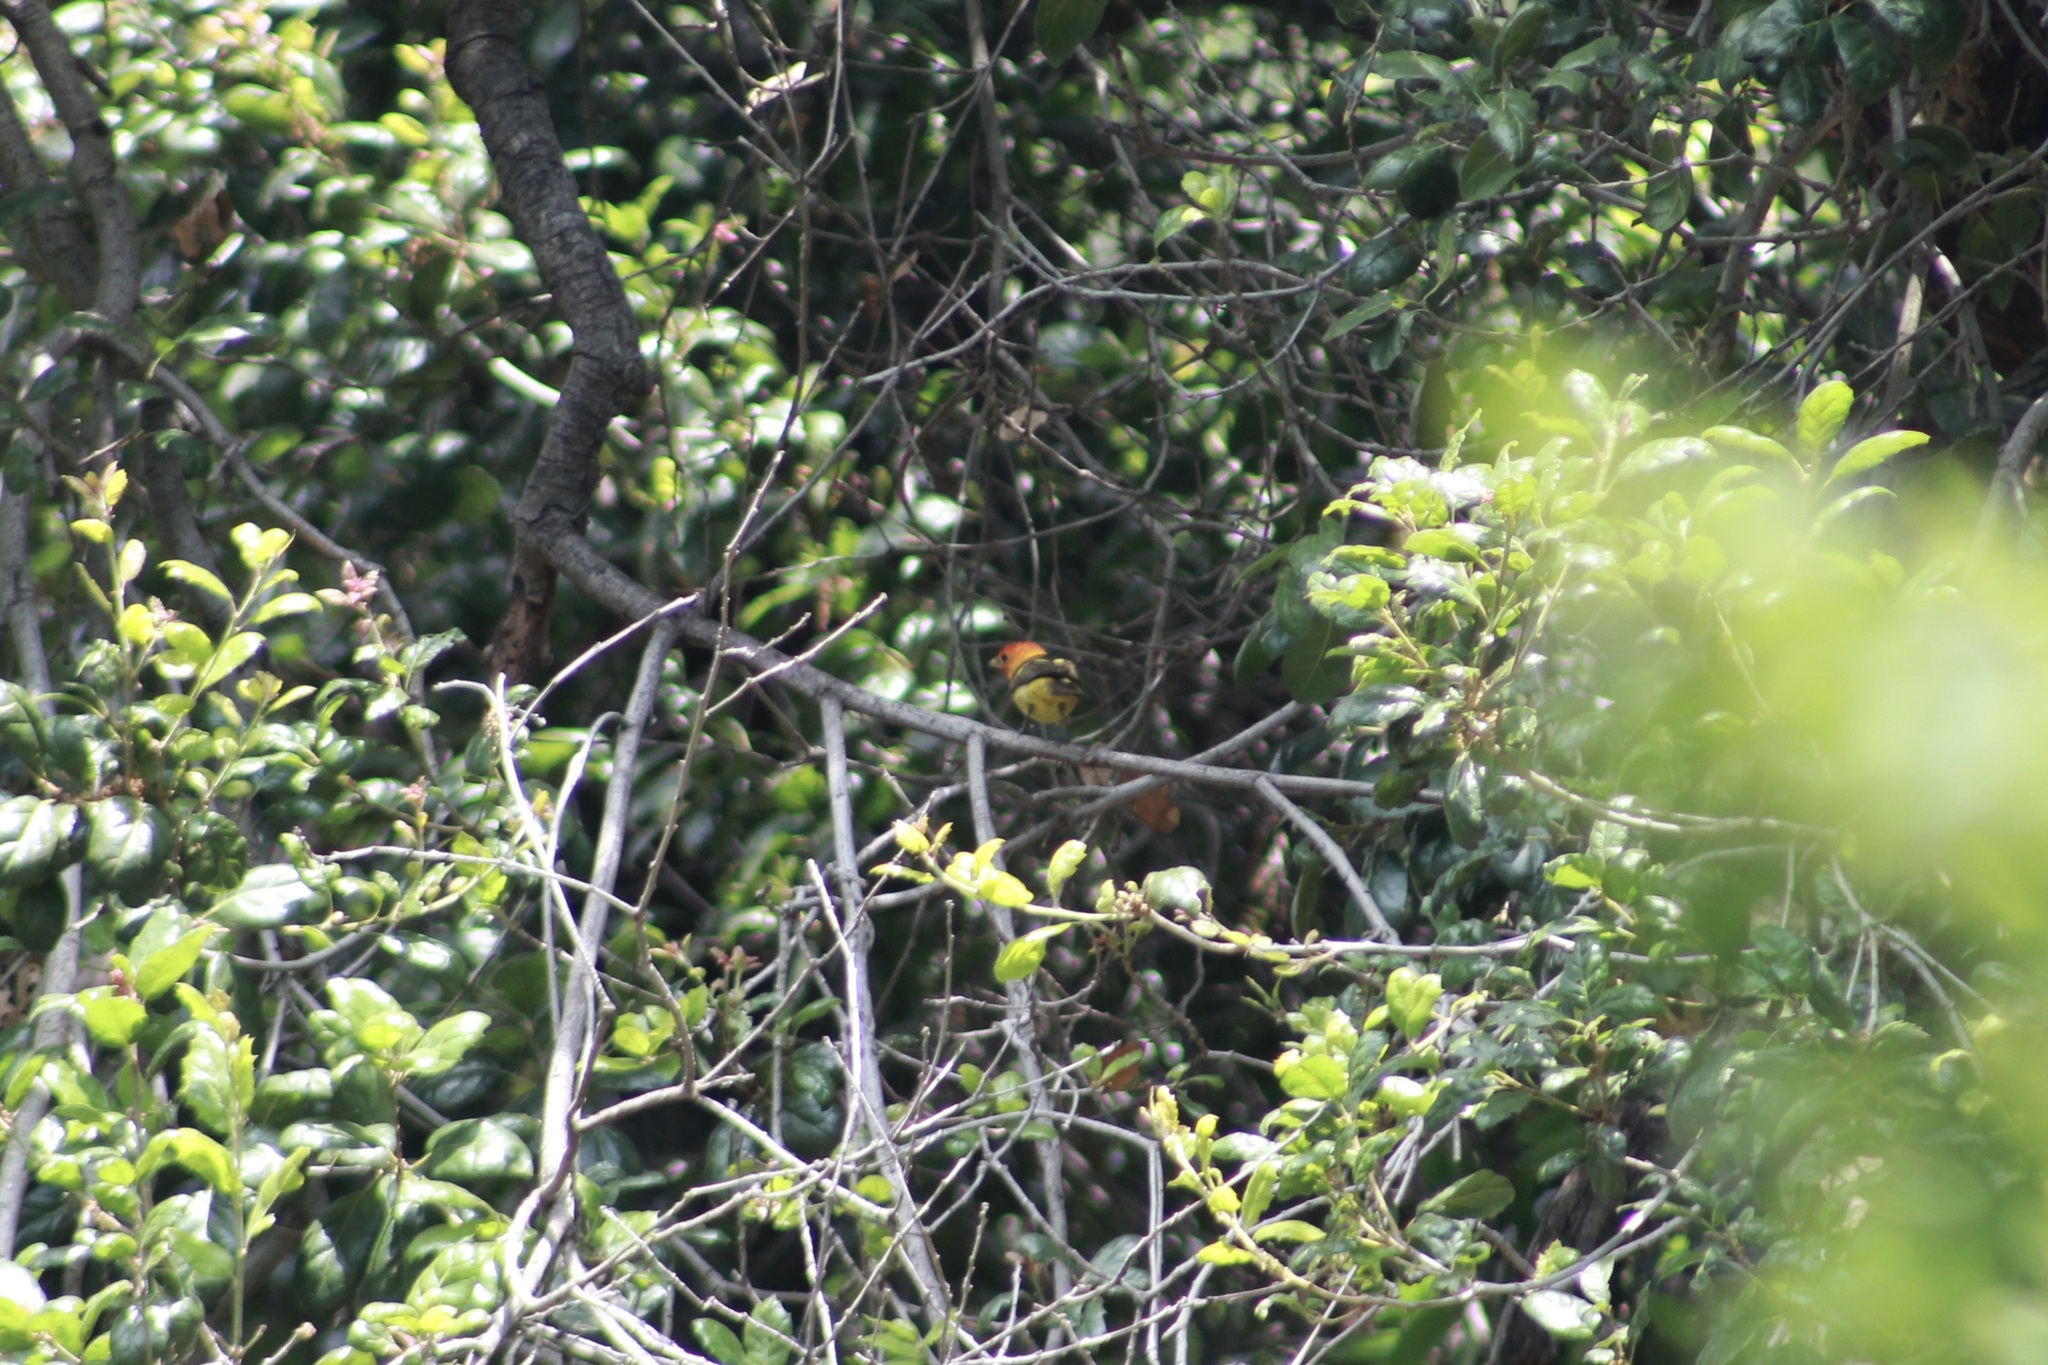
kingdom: Animalia
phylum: Chordata
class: Aves
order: Passeriformes
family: Cardinalidae
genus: Piranga
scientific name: Piranga ludoviciana
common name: Western tanager
